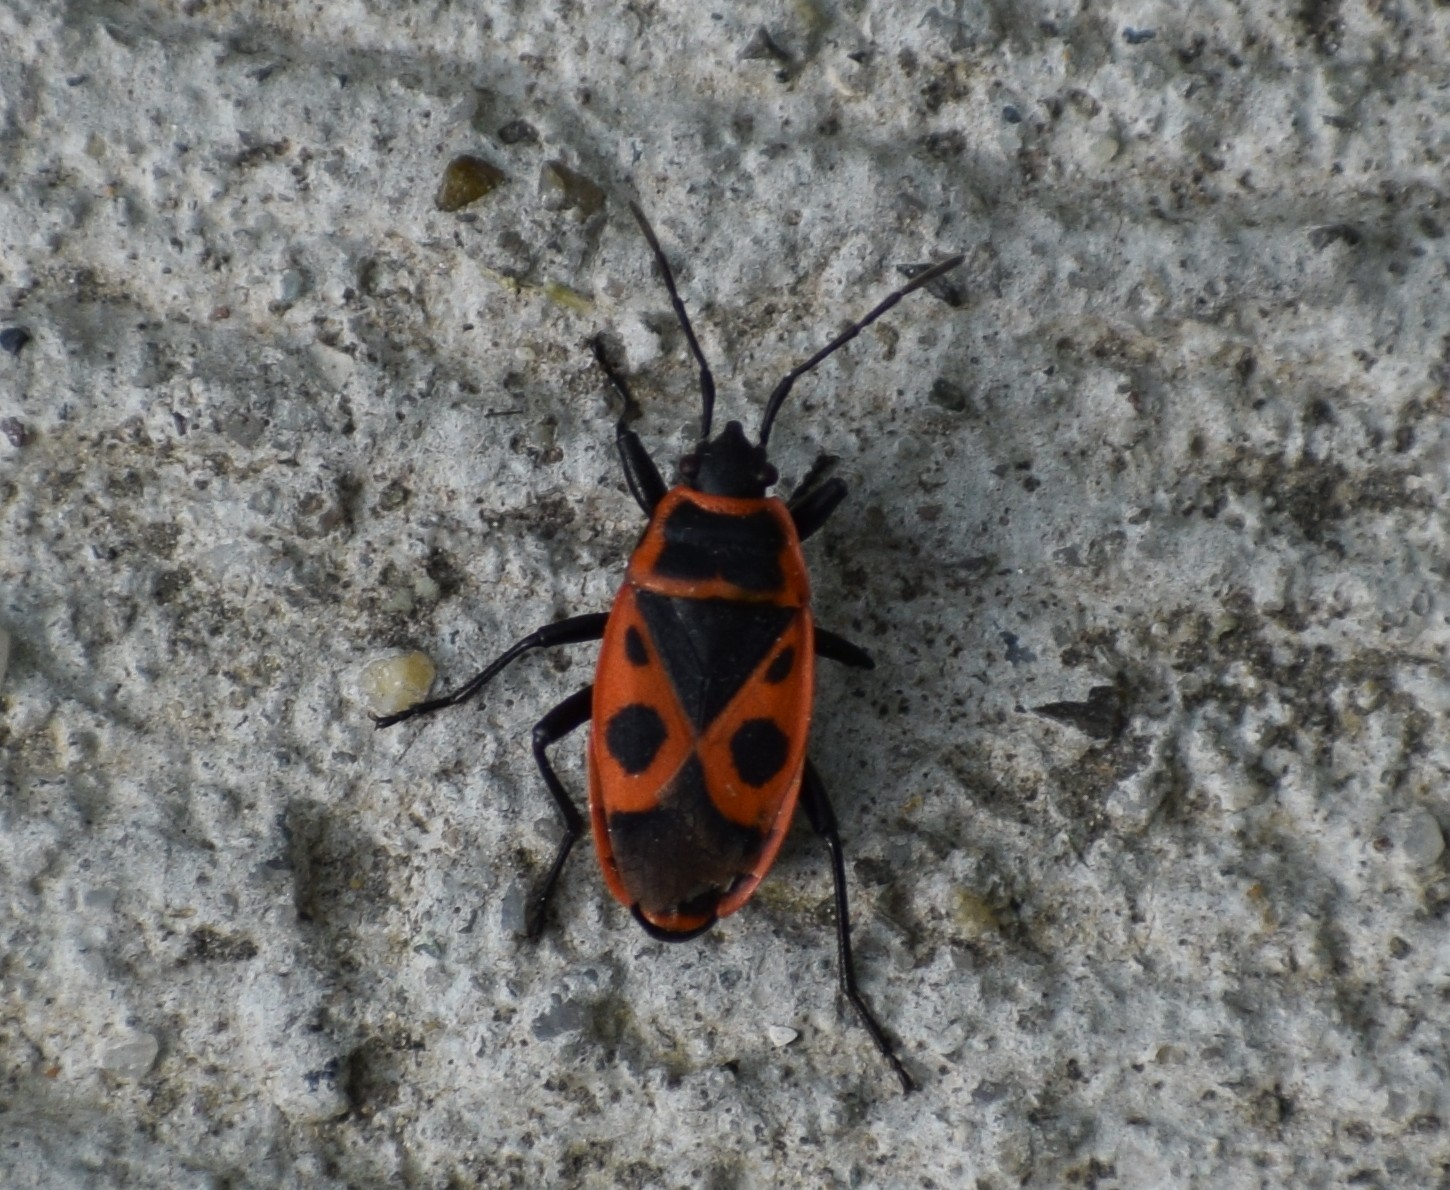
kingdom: Animalia
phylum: Arthropoda
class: Insecta
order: Hemiptera
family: Pyrrhocoridae
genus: Pyrrhocoris
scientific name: Pyrrhocoris apterus
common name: Firebug
